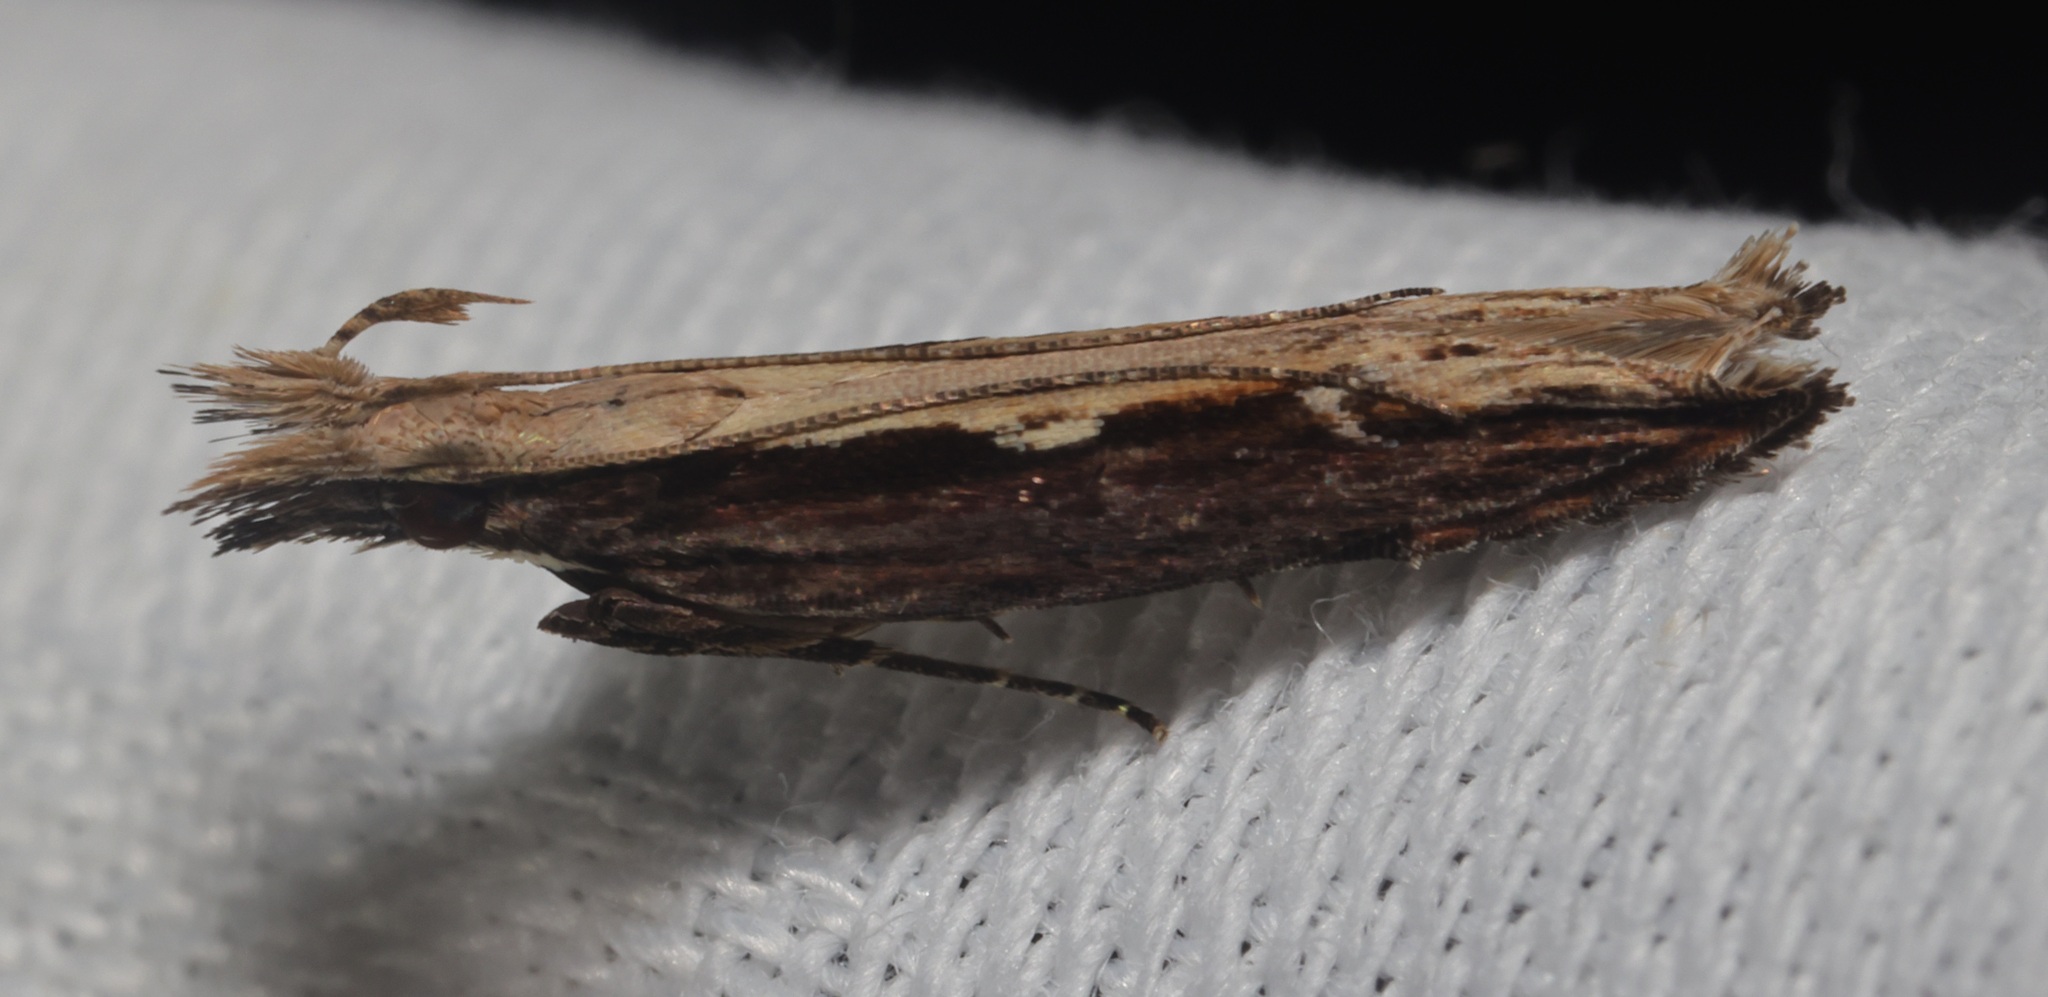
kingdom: Animalia
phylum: Arthropoda
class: Insecta
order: Lepidoptera
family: Gelechiidae
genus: Hypatima
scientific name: Hypatima spathota
